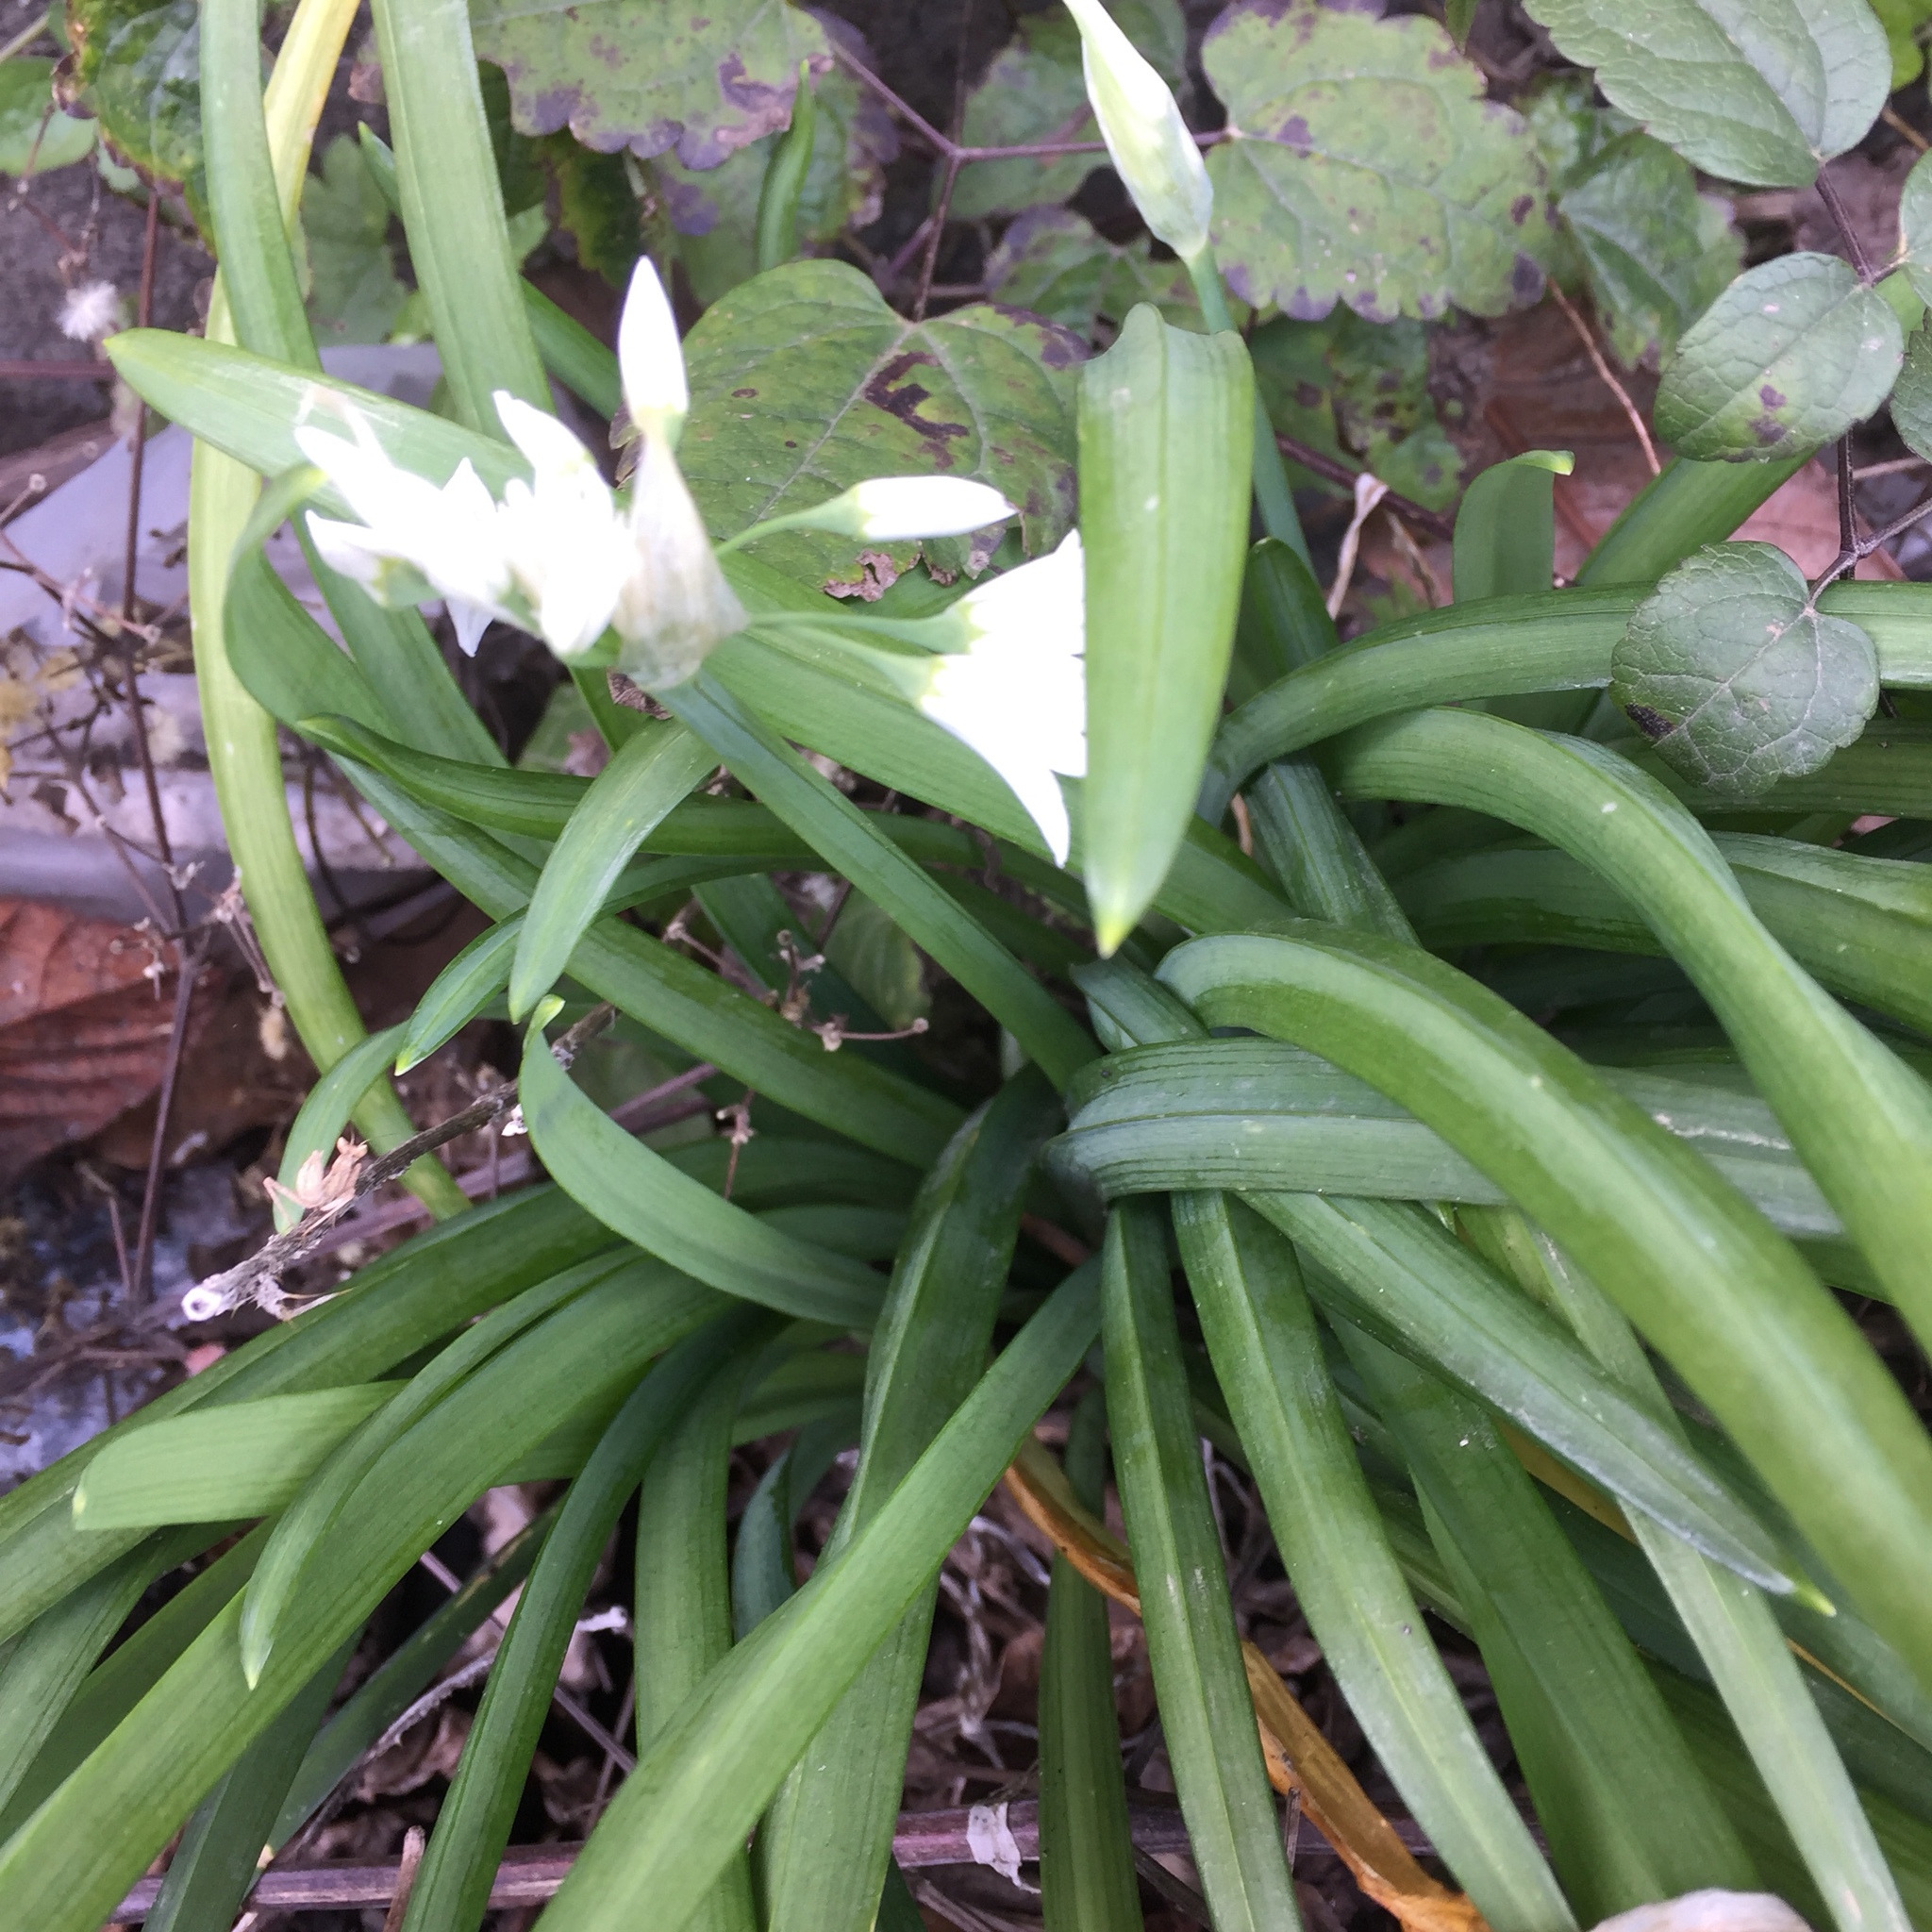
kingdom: Plantae
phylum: Tracheophyta
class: Liliopsida
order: Asparagales
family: Amaryllidaceae
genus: Allium
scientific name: Allium triquetrum
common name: Three-cornered garlic
